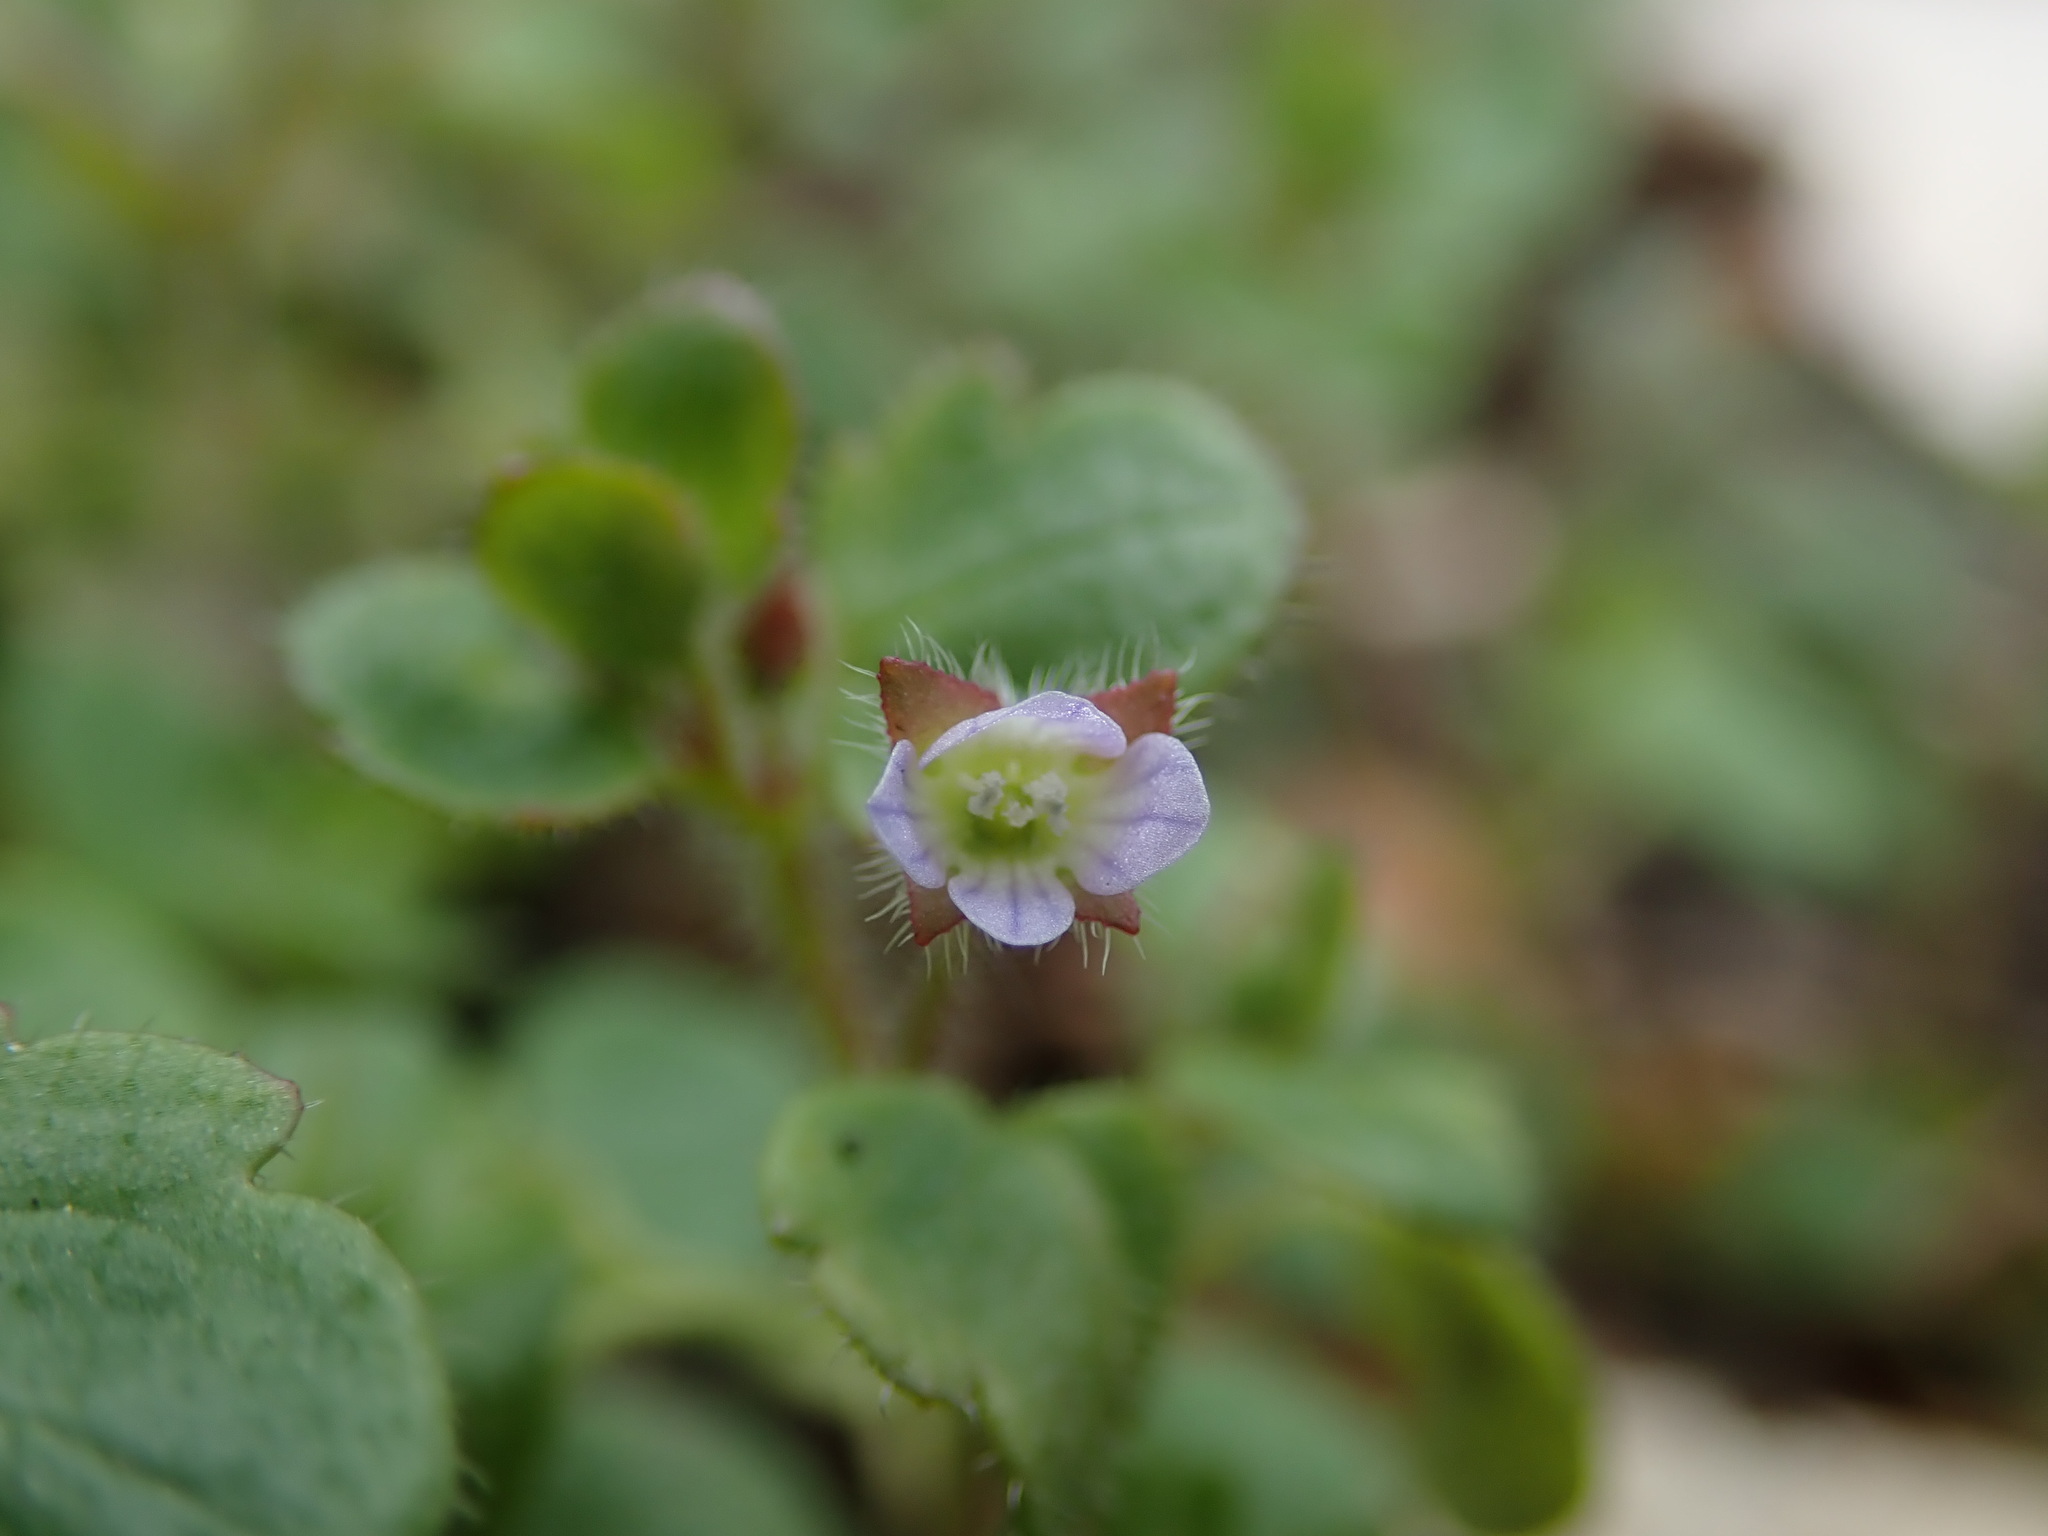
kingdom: Plantae
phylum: Tracheophyta
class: Magnoliopsida
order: Lamiales
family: Plantaginaceae
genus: Veronica
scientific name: Veronica sublobata
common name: False ivy-leaved speedwell
